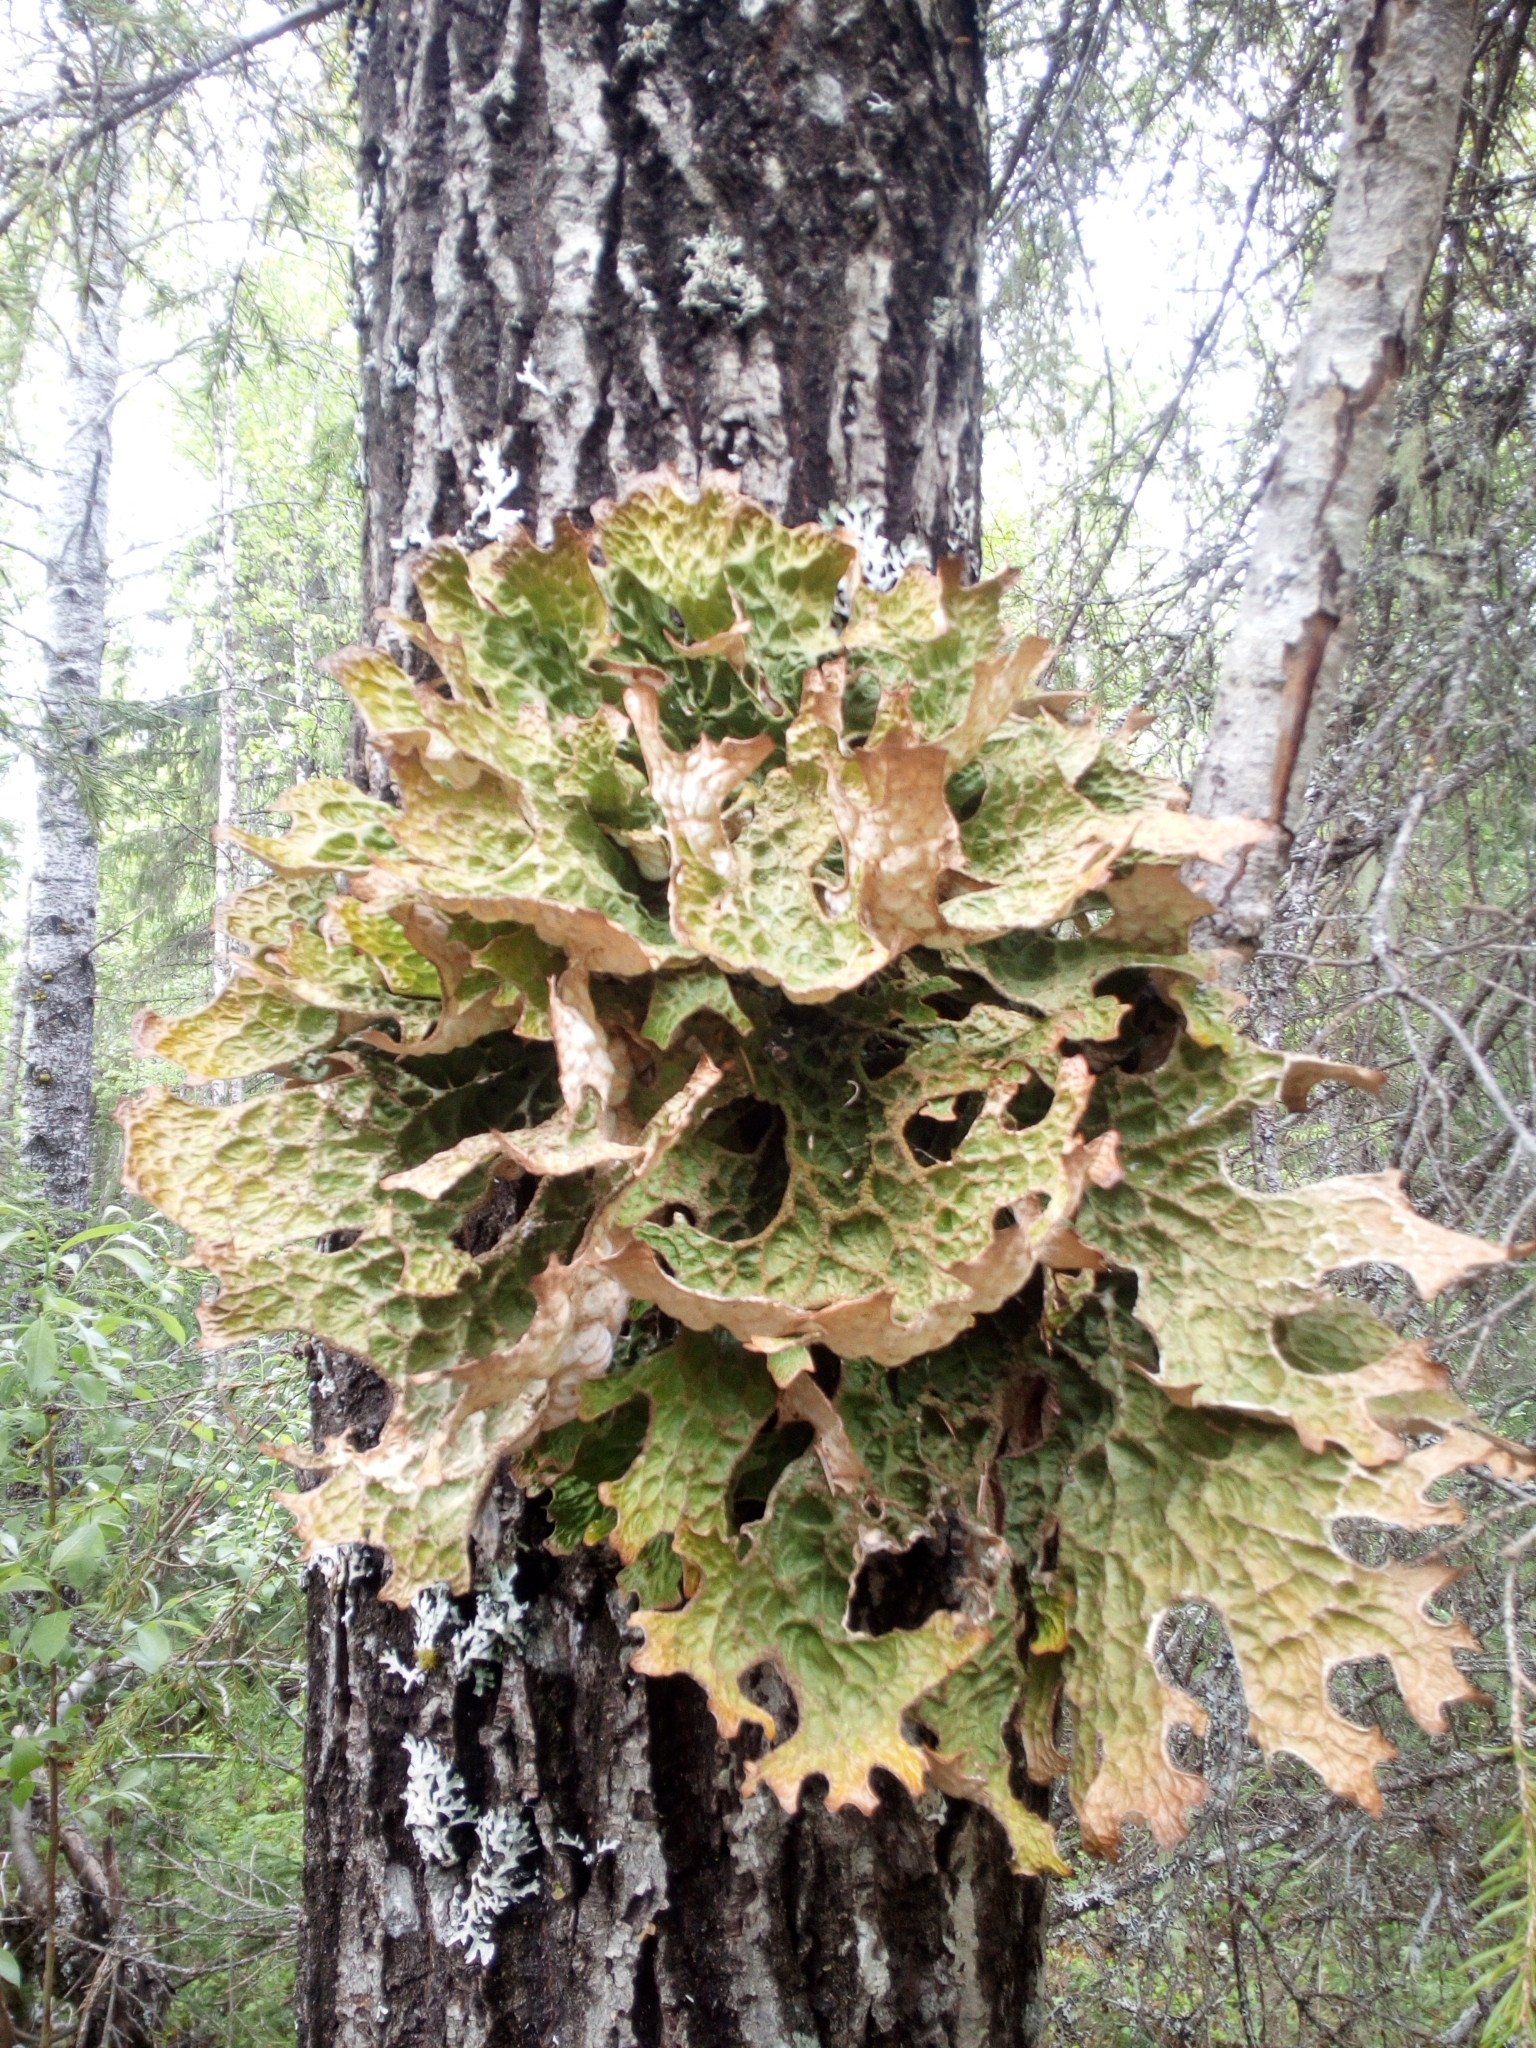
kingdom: Fungi
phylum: Ascomycota
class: Lecanoromycetes
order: Peltigerales
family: Lobariaceae
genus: Lobaria
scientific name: Lobaria pulmonaria
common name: Lungwort
